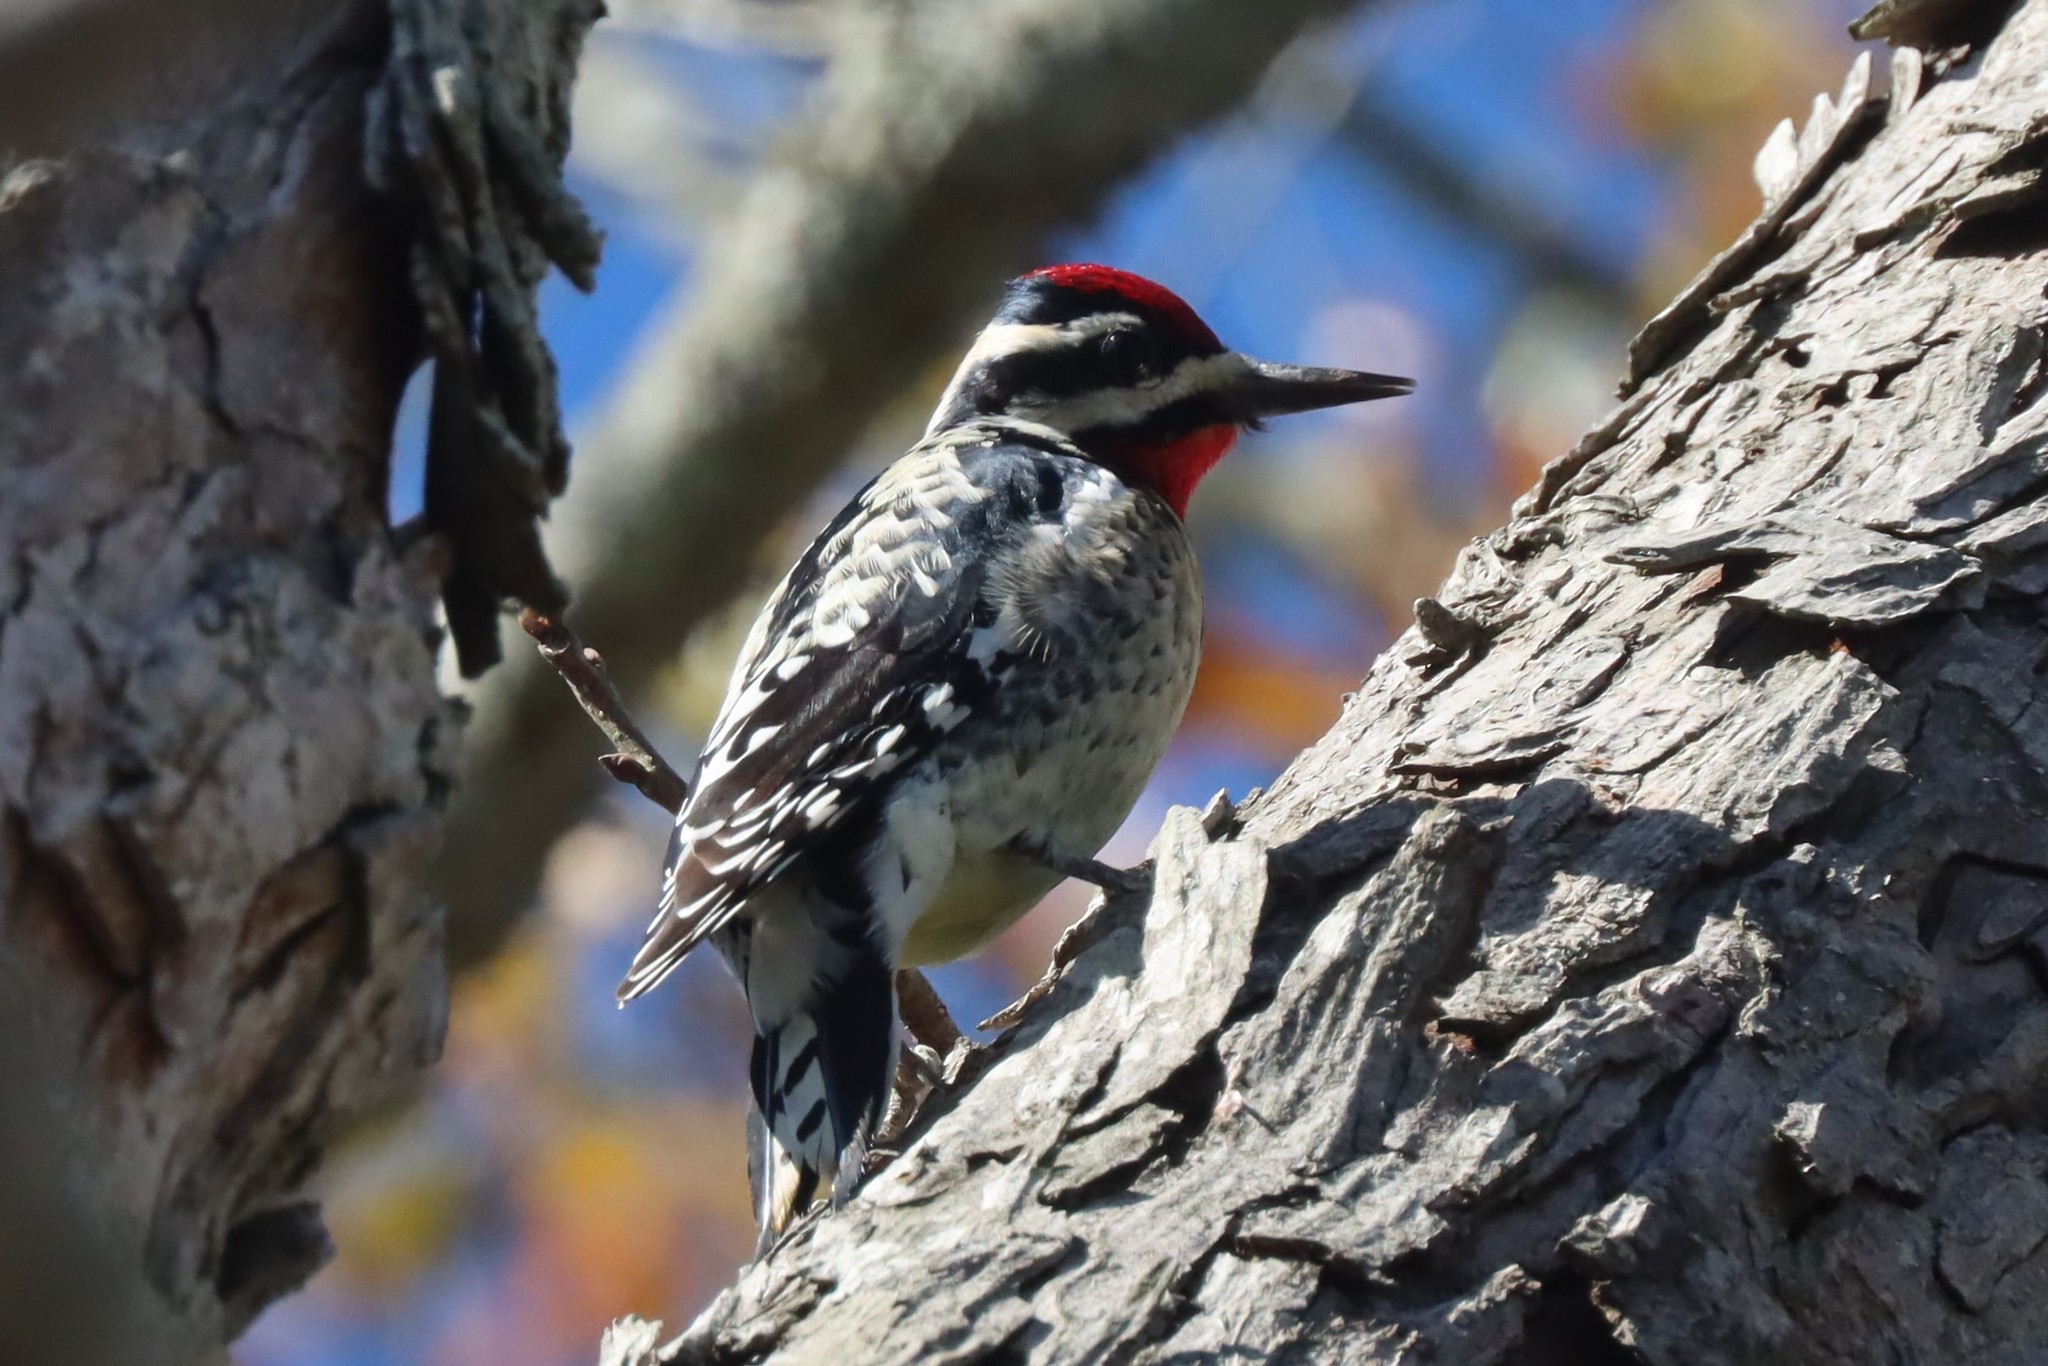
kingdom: Animalia
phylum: Chordata
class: Aves
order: Piciformes
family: Picidae
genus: Sphyrapicus
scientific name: Sphyrapicus varius
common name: Yellow-bellied sapsucker
